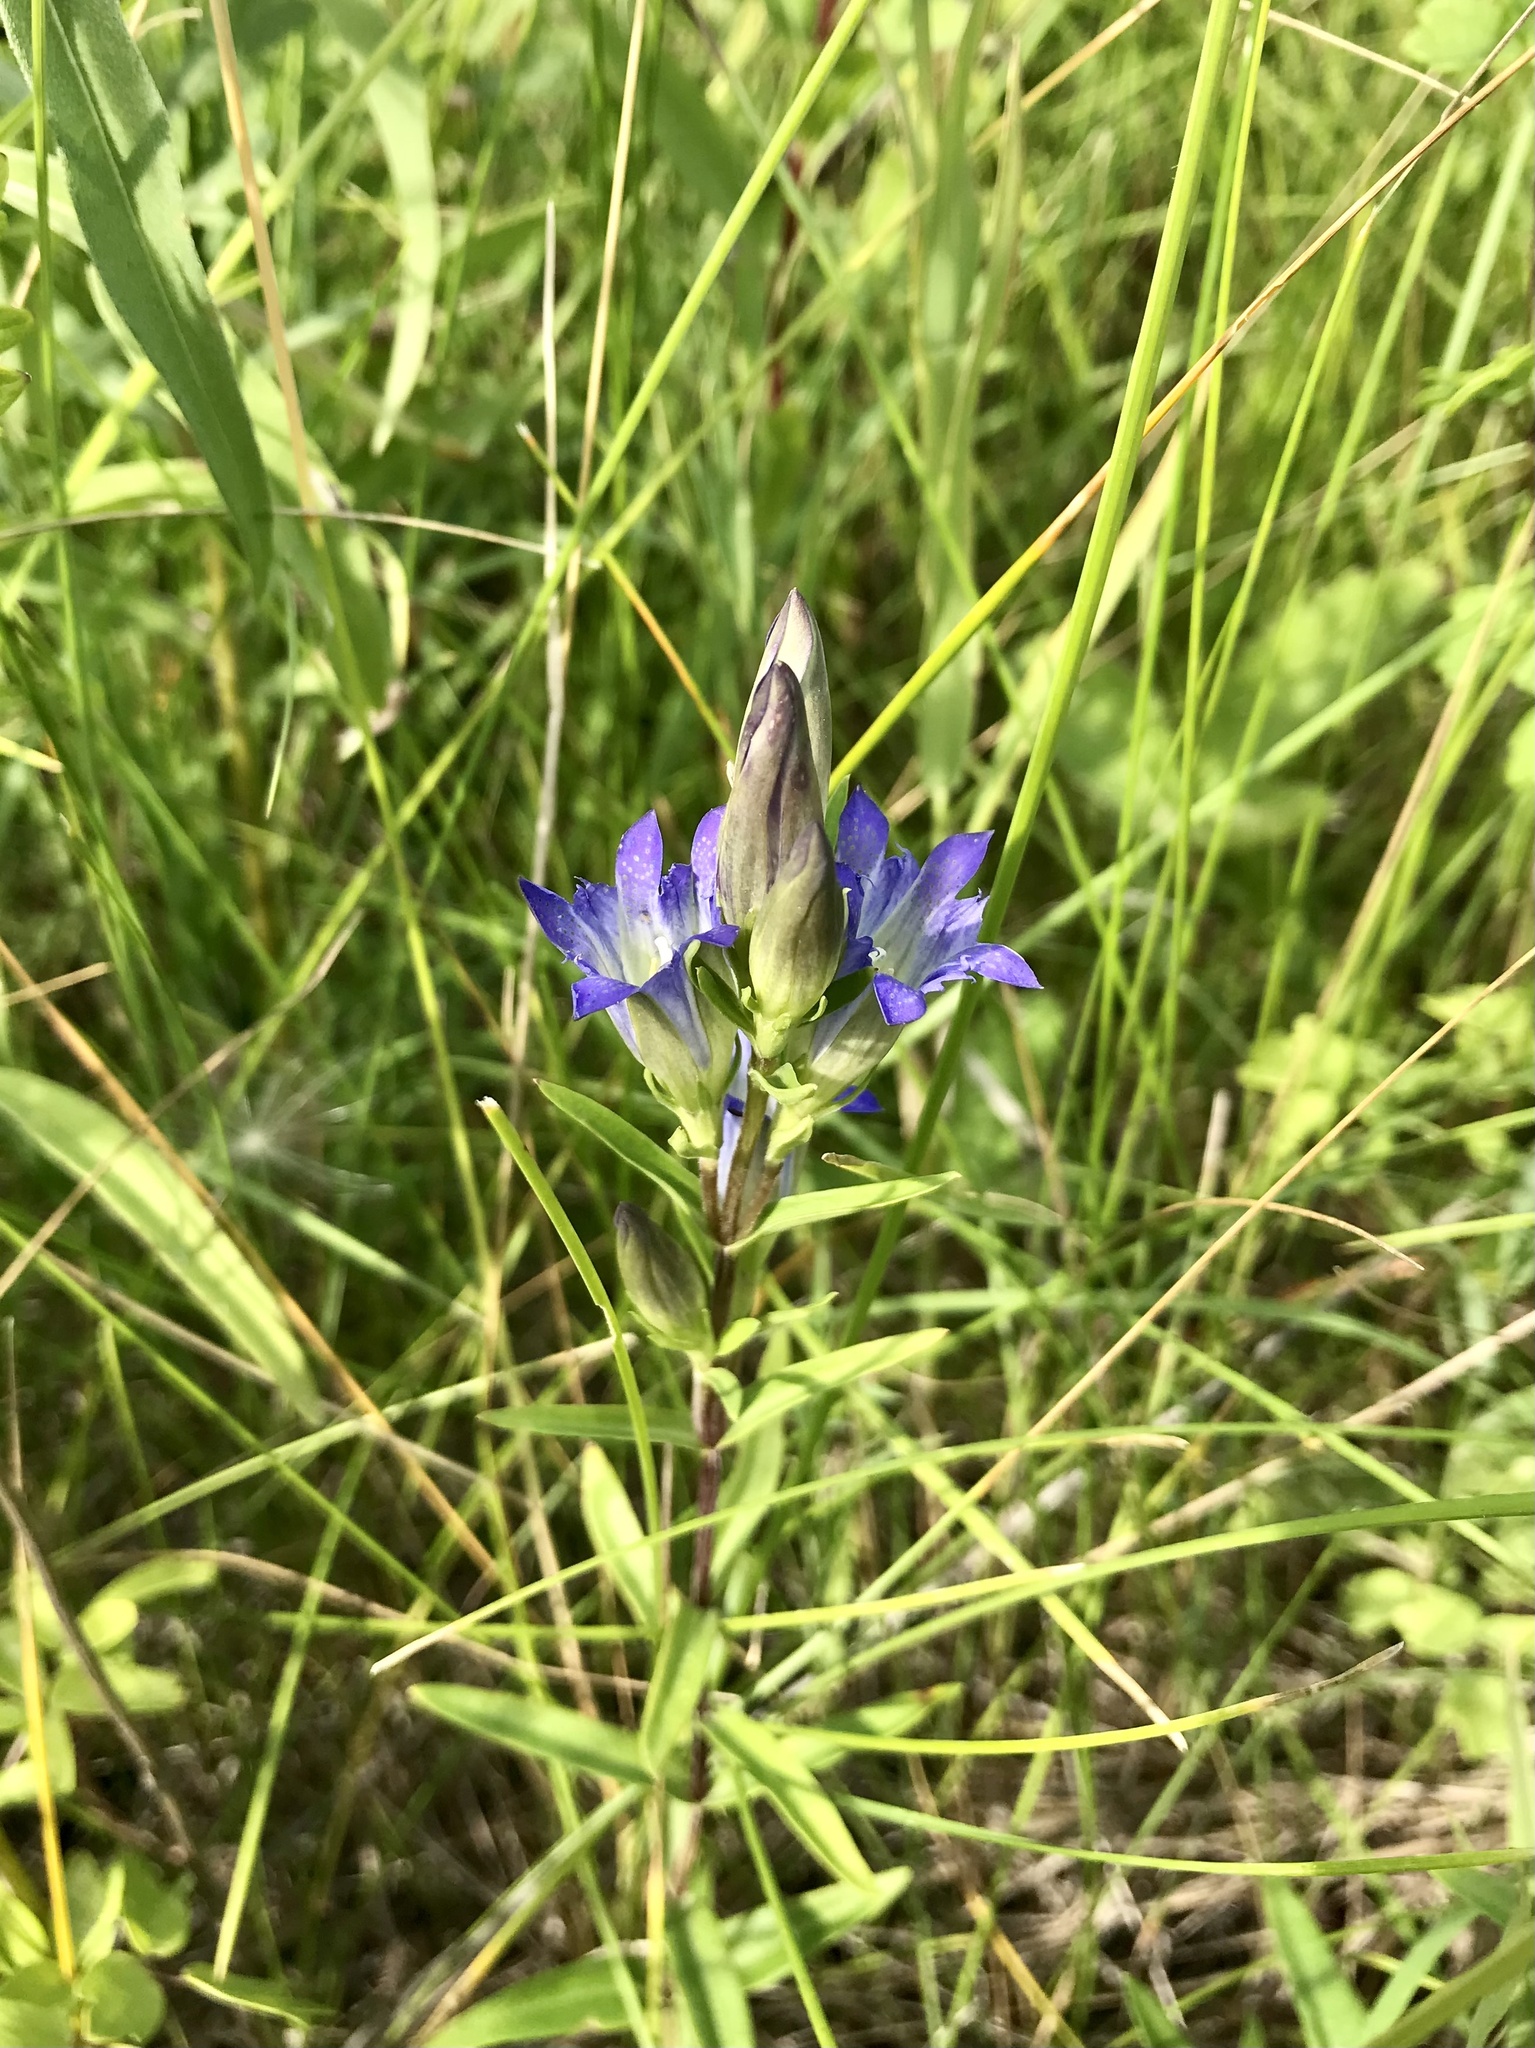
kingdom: Plantae
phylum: Tracheophyta
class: Magnoliopsida
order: Gentianales
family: Gentianaceae
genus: Gentiana
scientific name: Gentiana affinis
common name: Rocky mountain gentian
